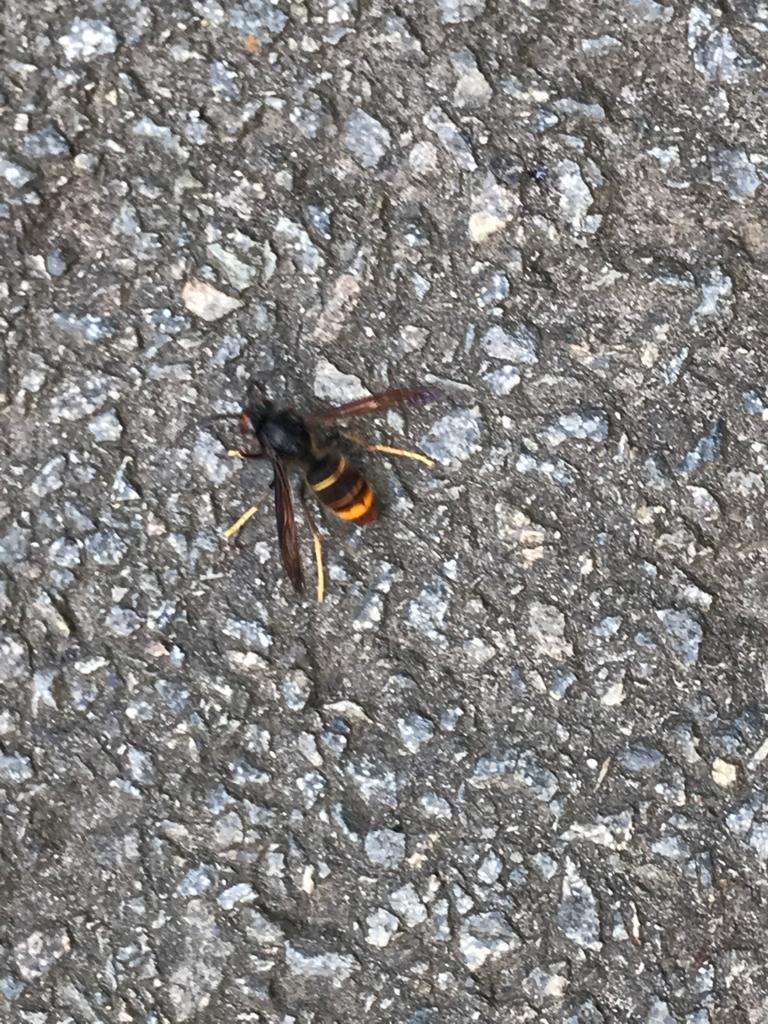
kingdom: Animalia
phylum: Arthropoda
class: Insecta
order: Hymenoptera
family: Vespidae
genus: Vespa
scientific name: Vespa velutina
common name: Asian hornet
